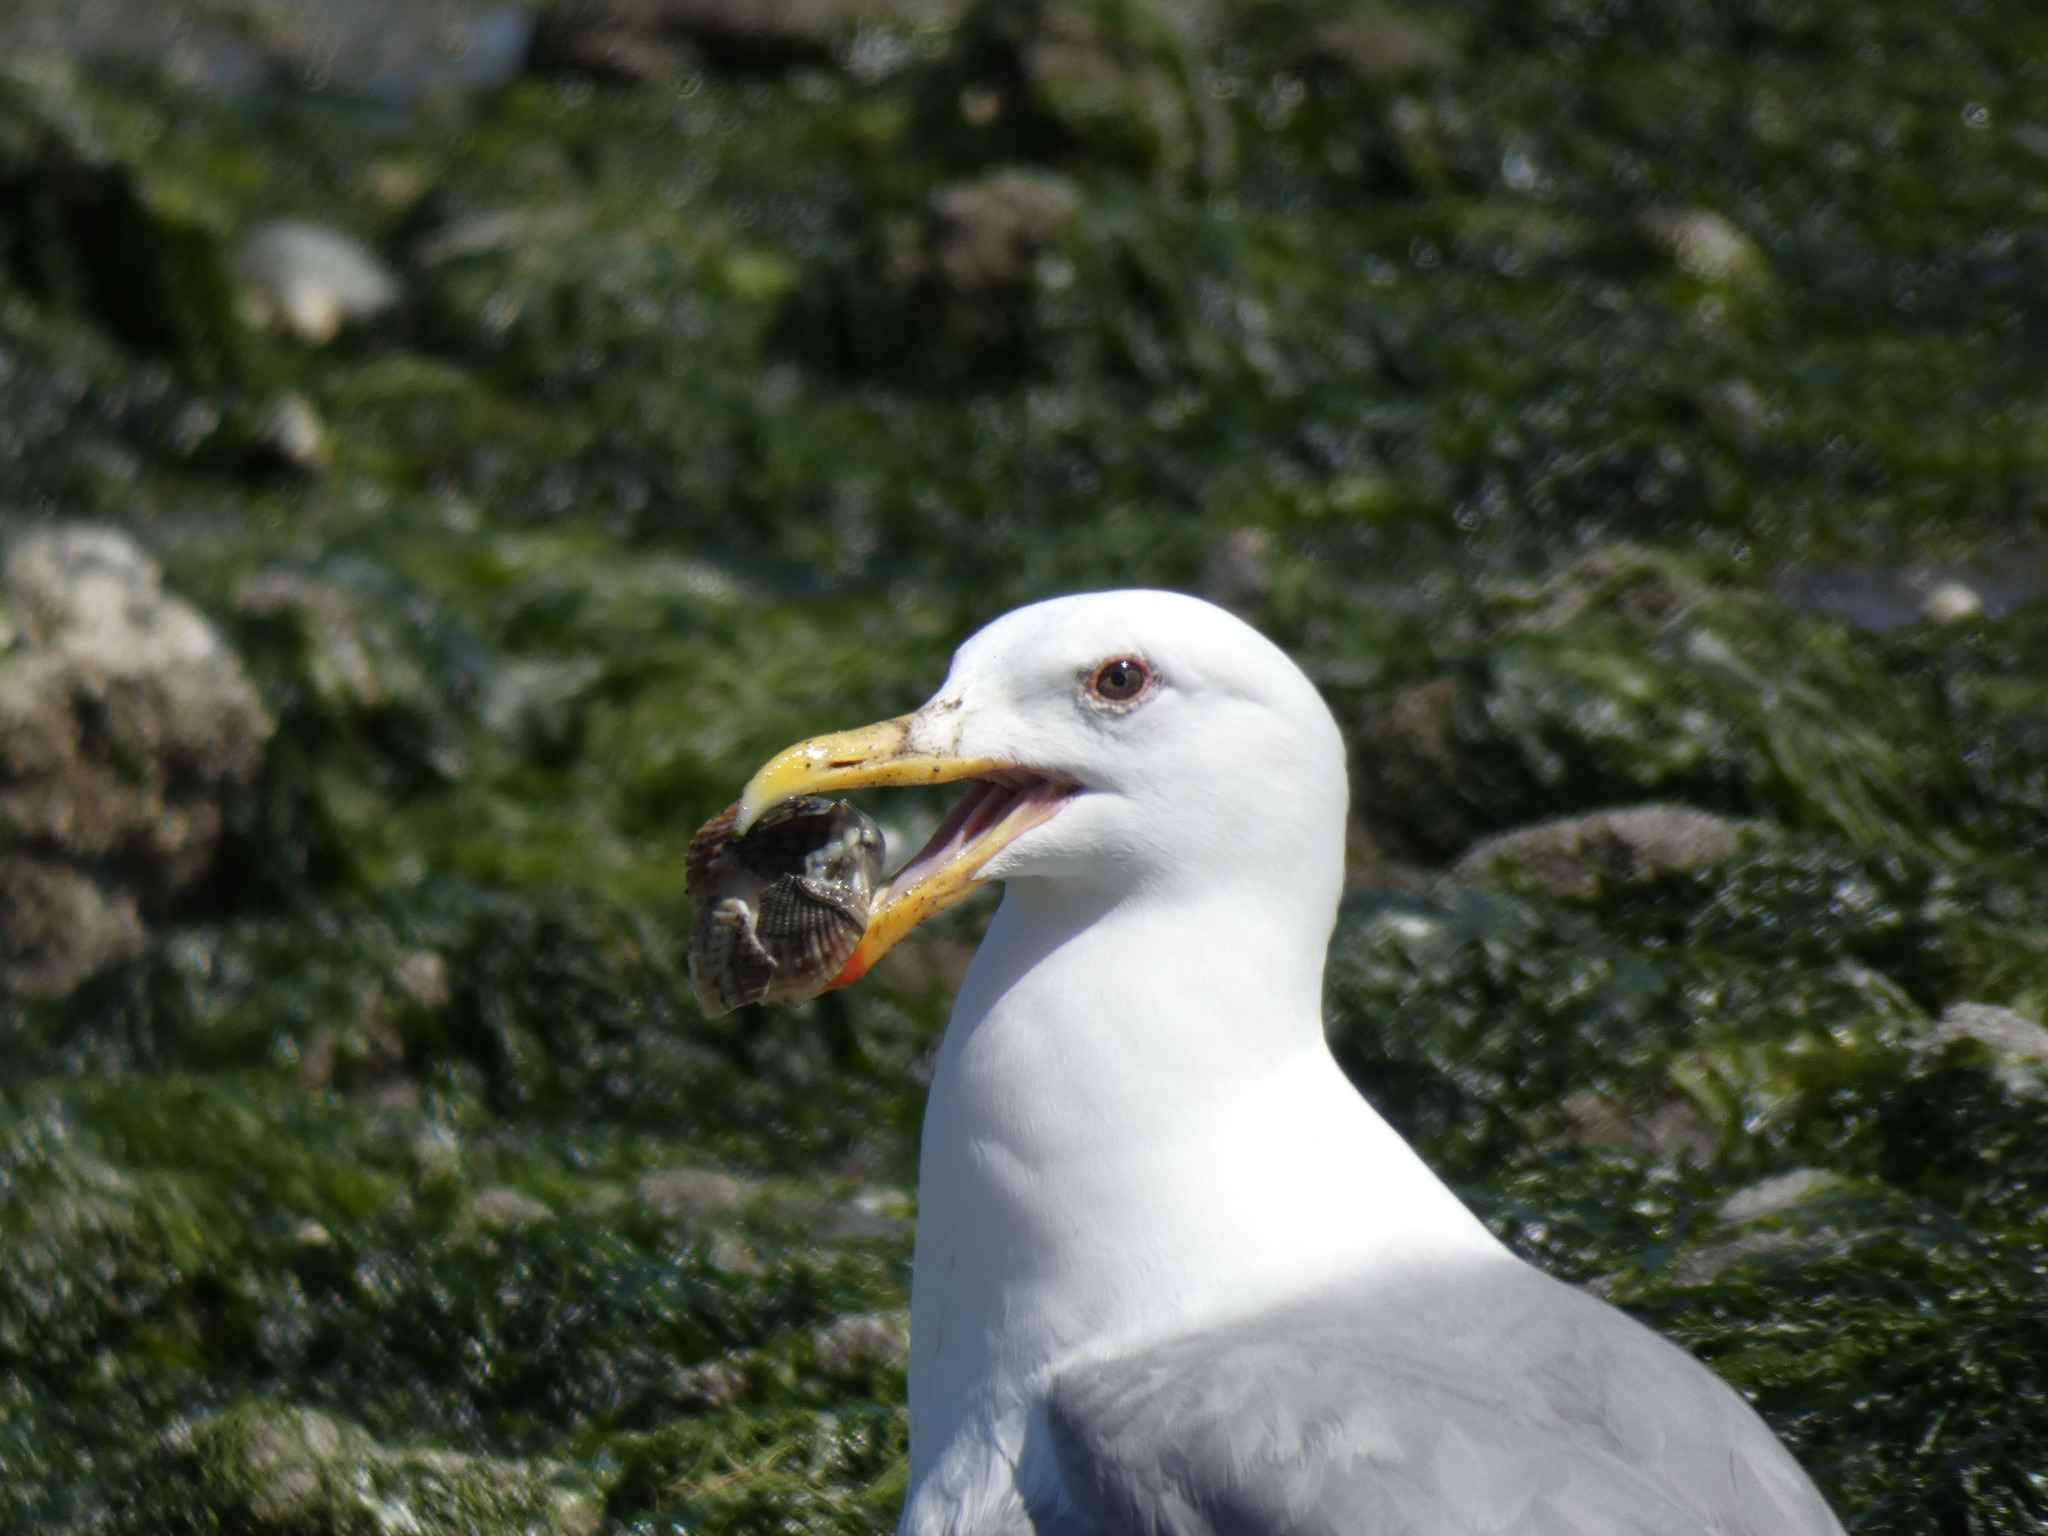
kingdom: Animalia
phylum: Chordata
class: Aves
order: Charadriiformes
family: Laridae
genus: Larus
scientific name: Larus
